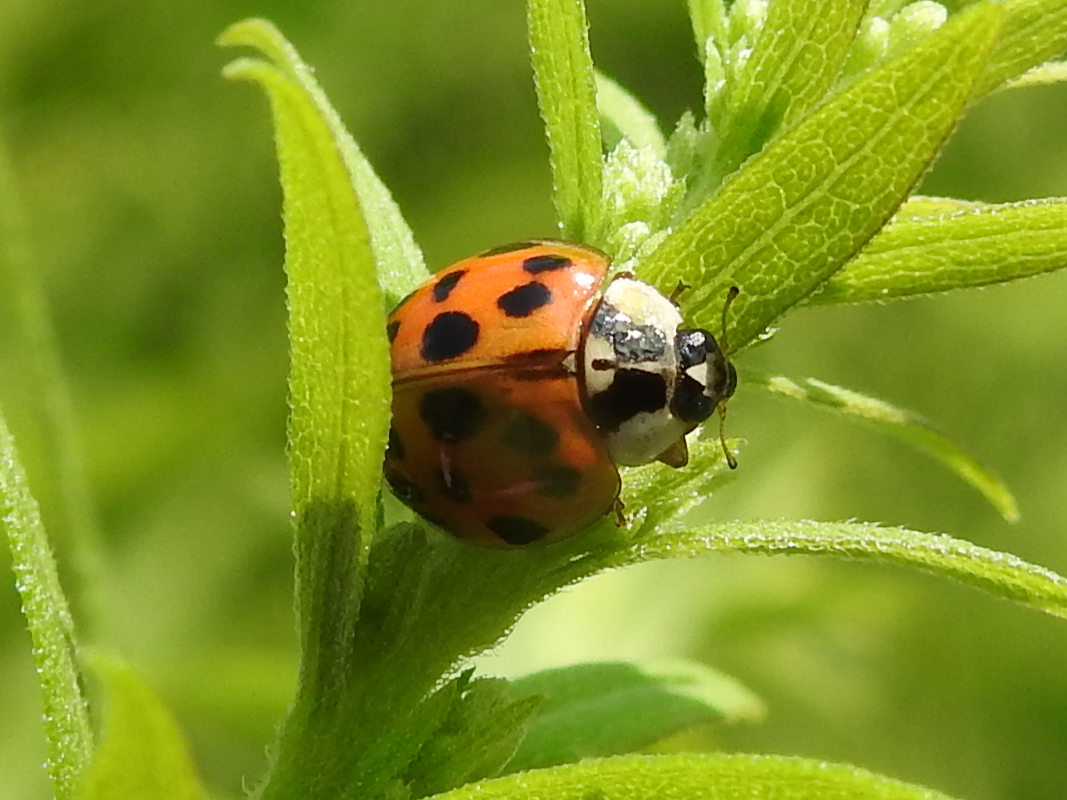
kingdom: Animalia
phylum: Arthropoda
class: Insecta
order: Coleoptera
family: Coccinellidae
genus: Harmonia
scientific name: Harmonia axyridis
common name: Harlequin ladybird
